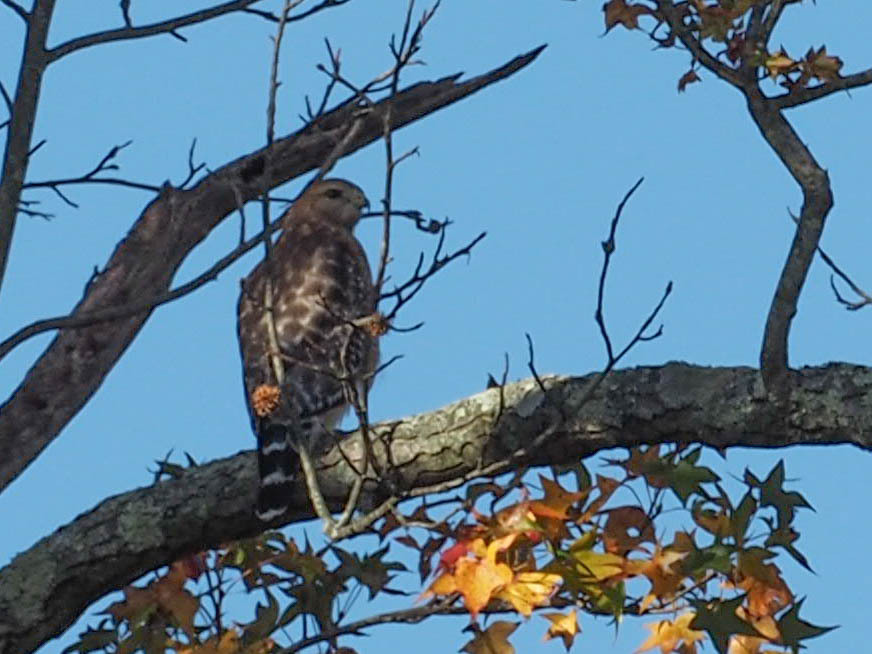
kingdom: Animalia
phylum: Chordata
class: Aves
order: Accipitriformes
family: Accipitridae
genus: Buteo
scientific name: Buteo lineatus
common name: Red-shouldered hawk
